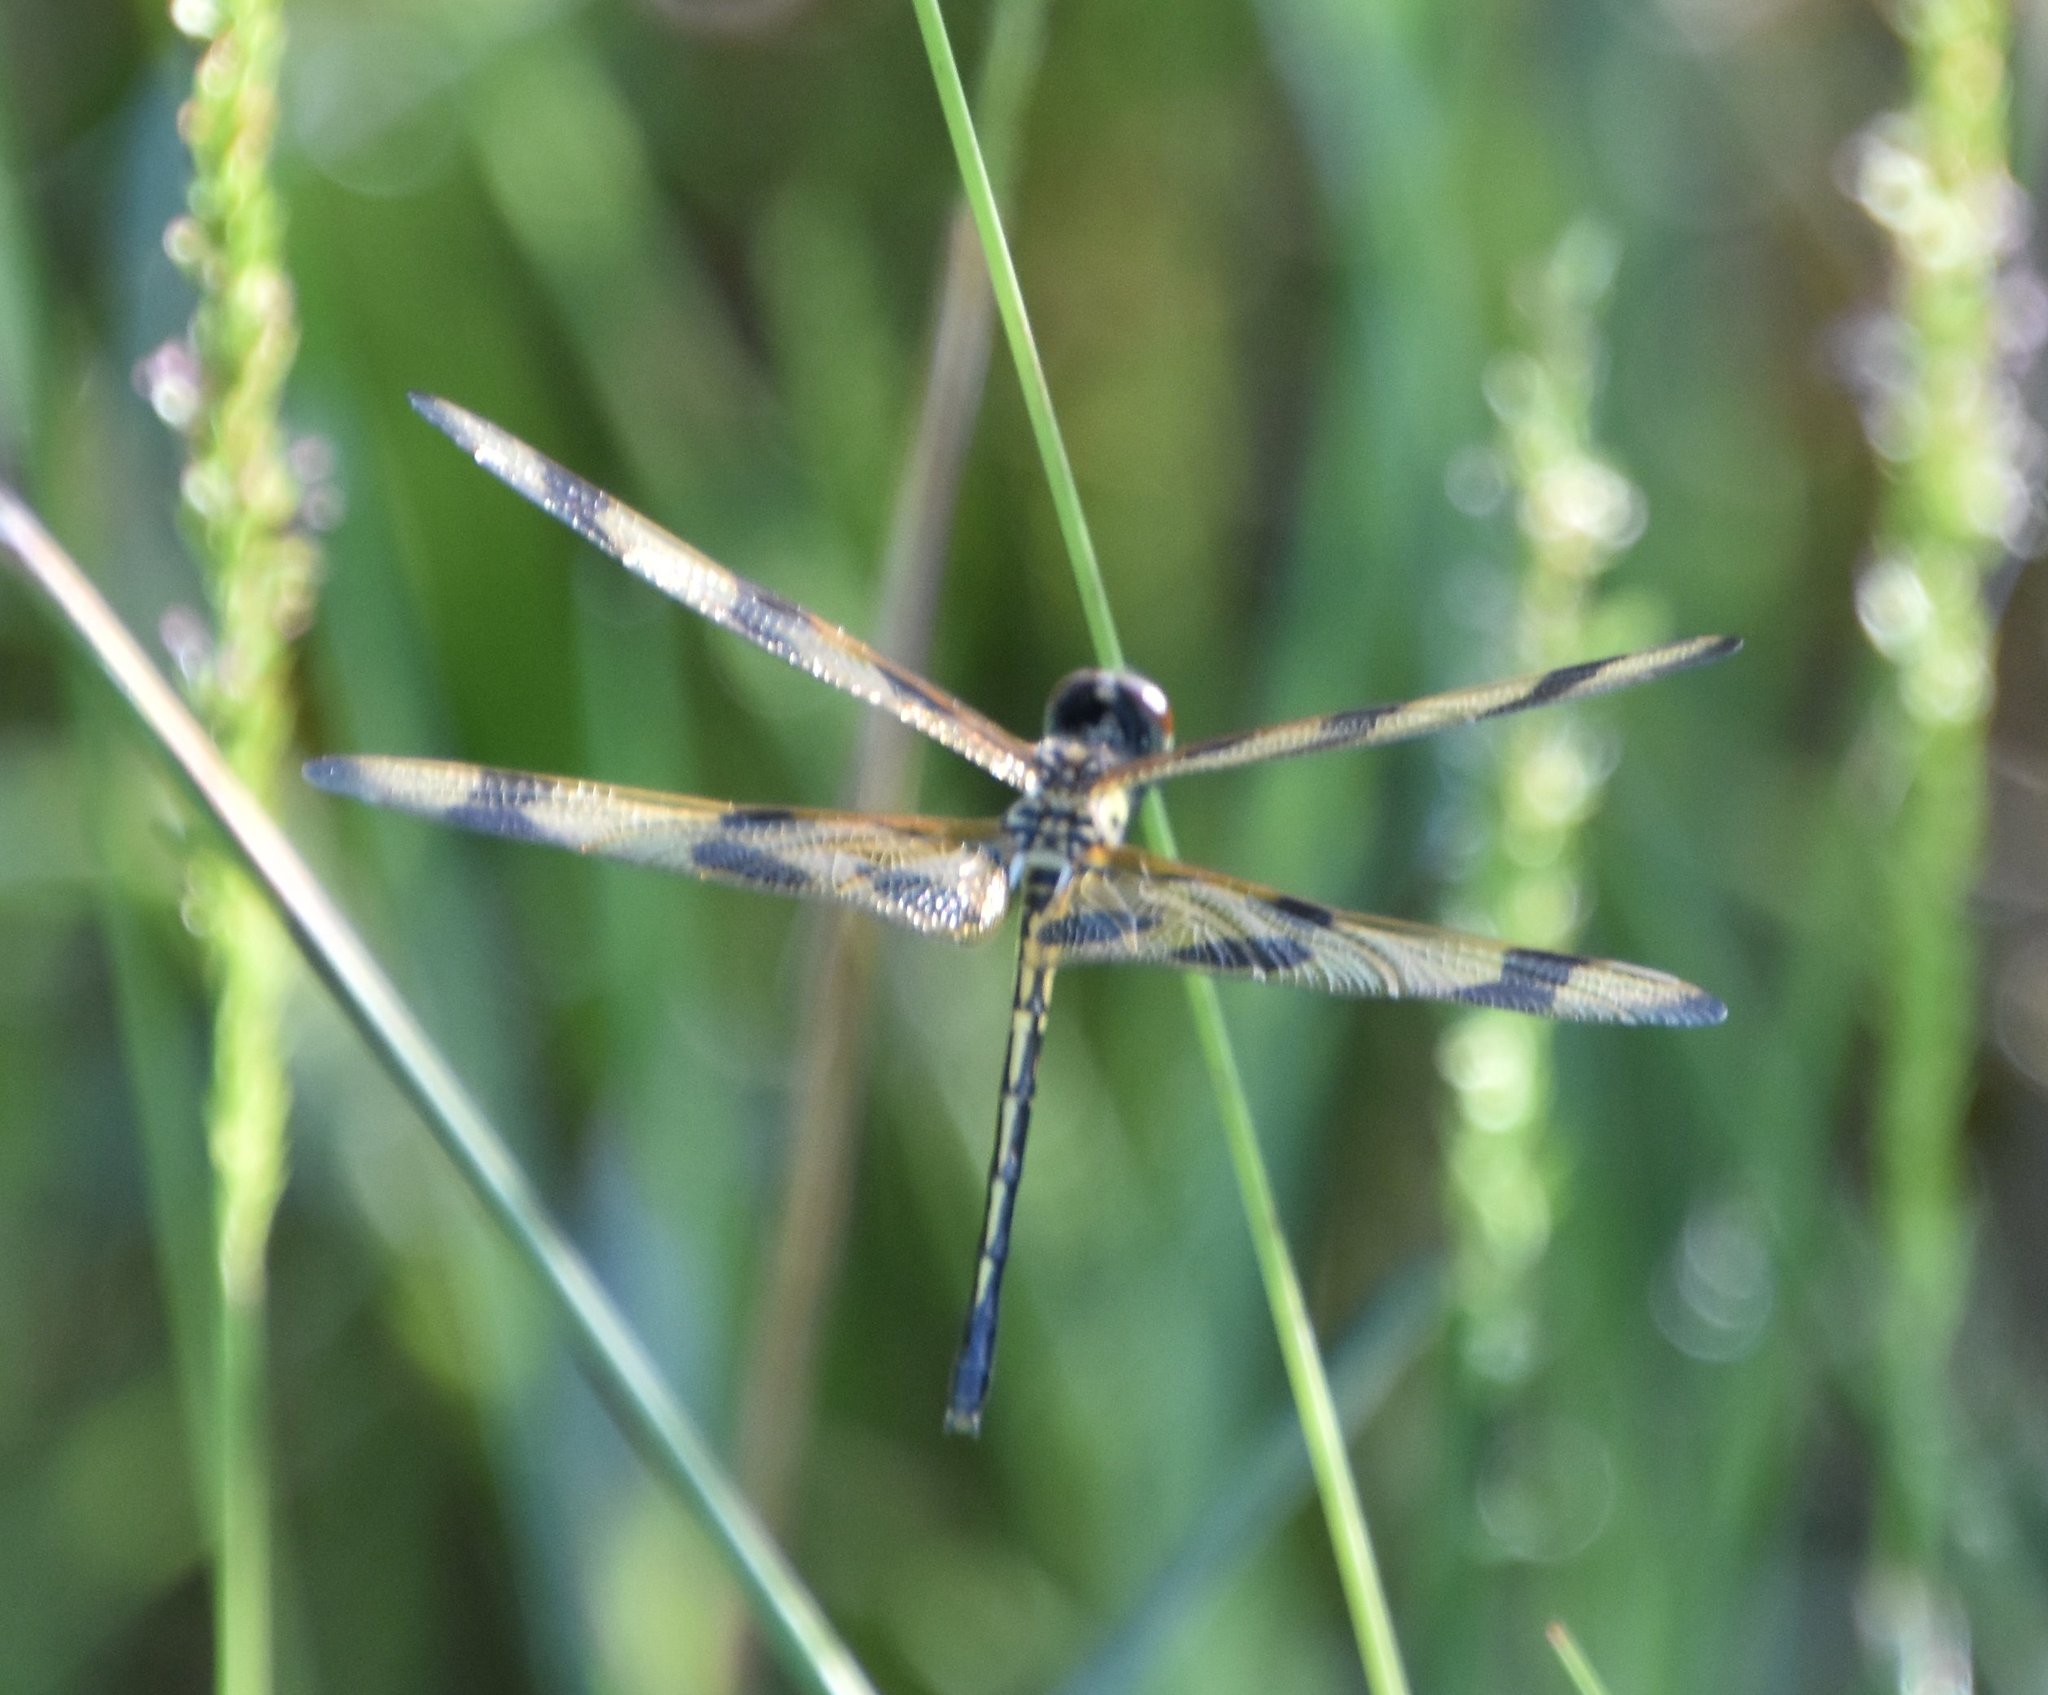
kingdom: Animalia
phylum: Arthropoda
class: Insecta
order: Odonata
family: Libellulidae
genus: Celithemis
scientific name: Celithemis eponina
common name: Halloween pennant
